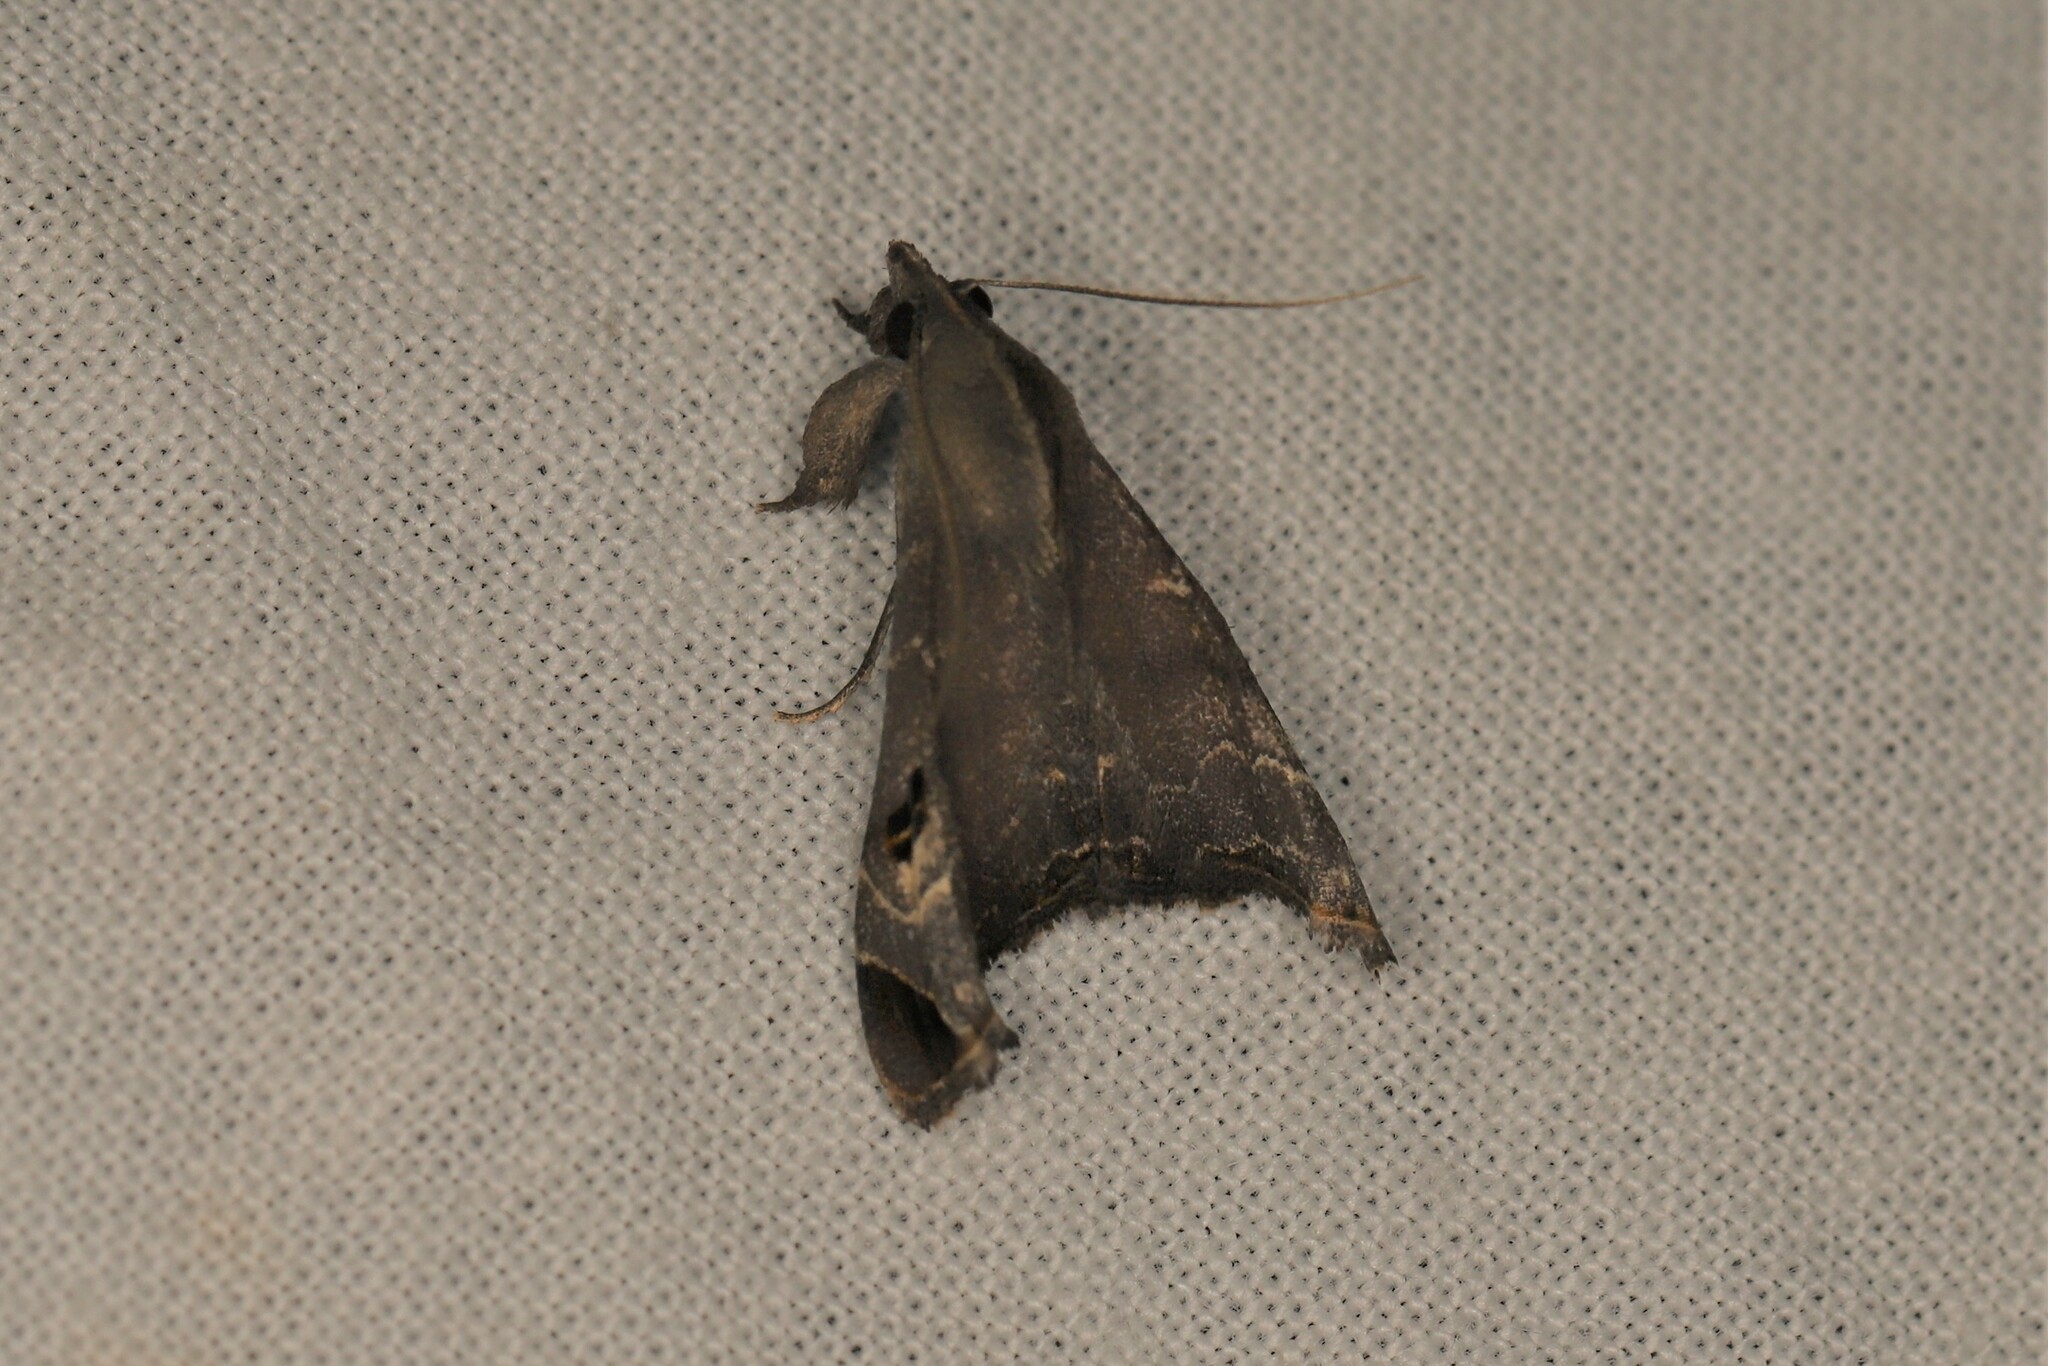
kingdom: Animalia
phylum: Arthropoda
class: Insecta
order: Lepidoptera
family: Erebidae
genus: Palthis
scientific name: Palthis bizialis
